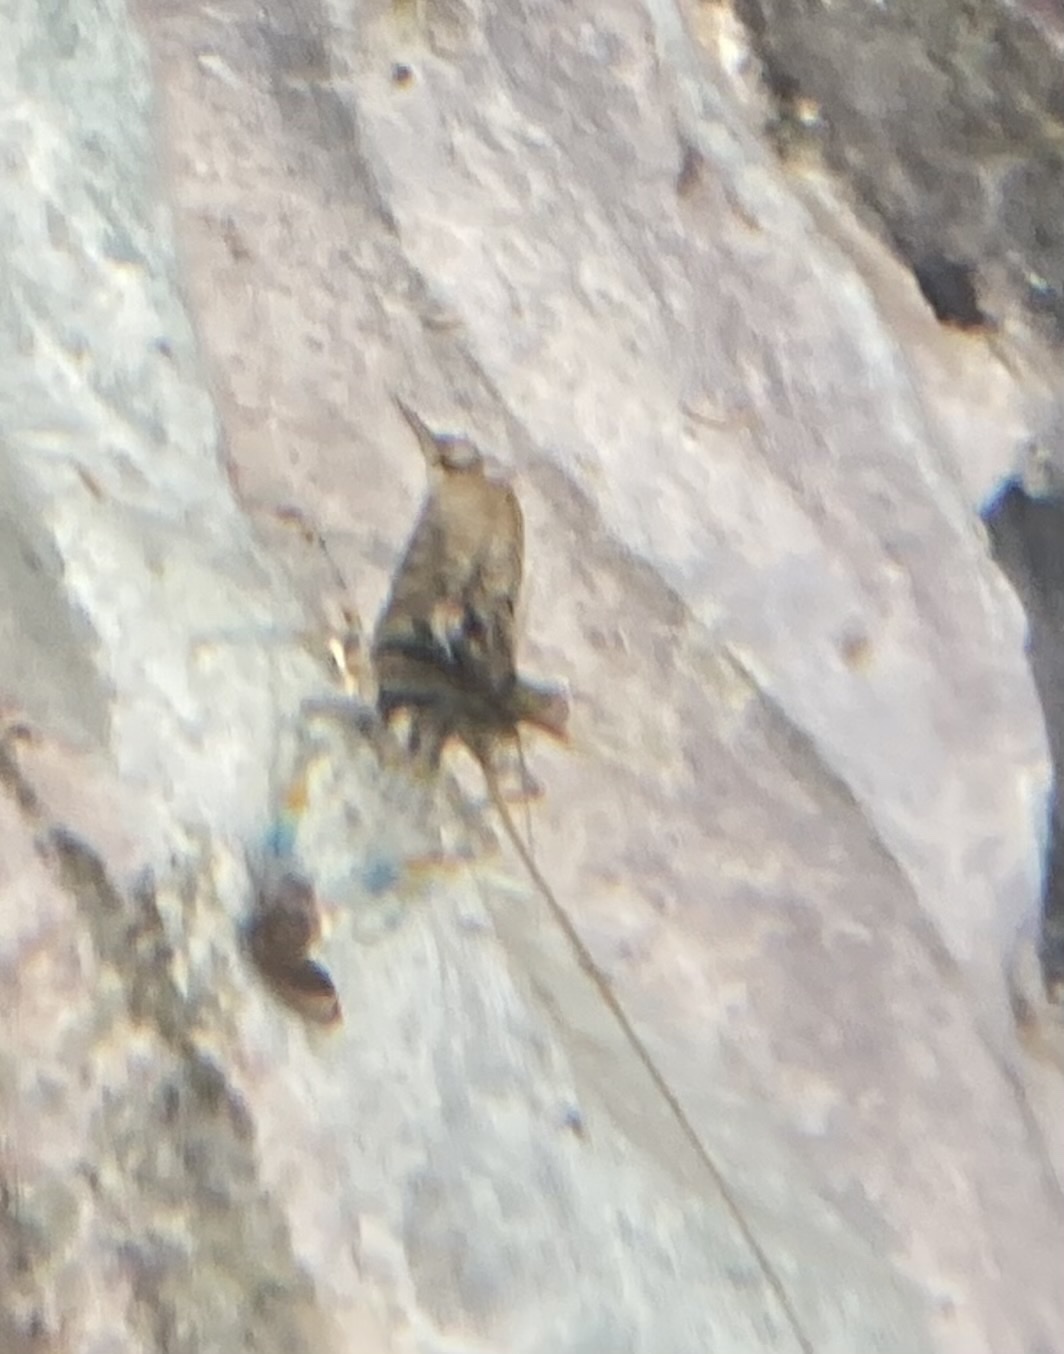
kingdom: Animalia
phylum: Arthropoda
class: Malacostraca
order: Decapoda
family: Palaemonidae
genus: Palaemon
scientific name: Palaemon elegans
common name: Grass prawm
